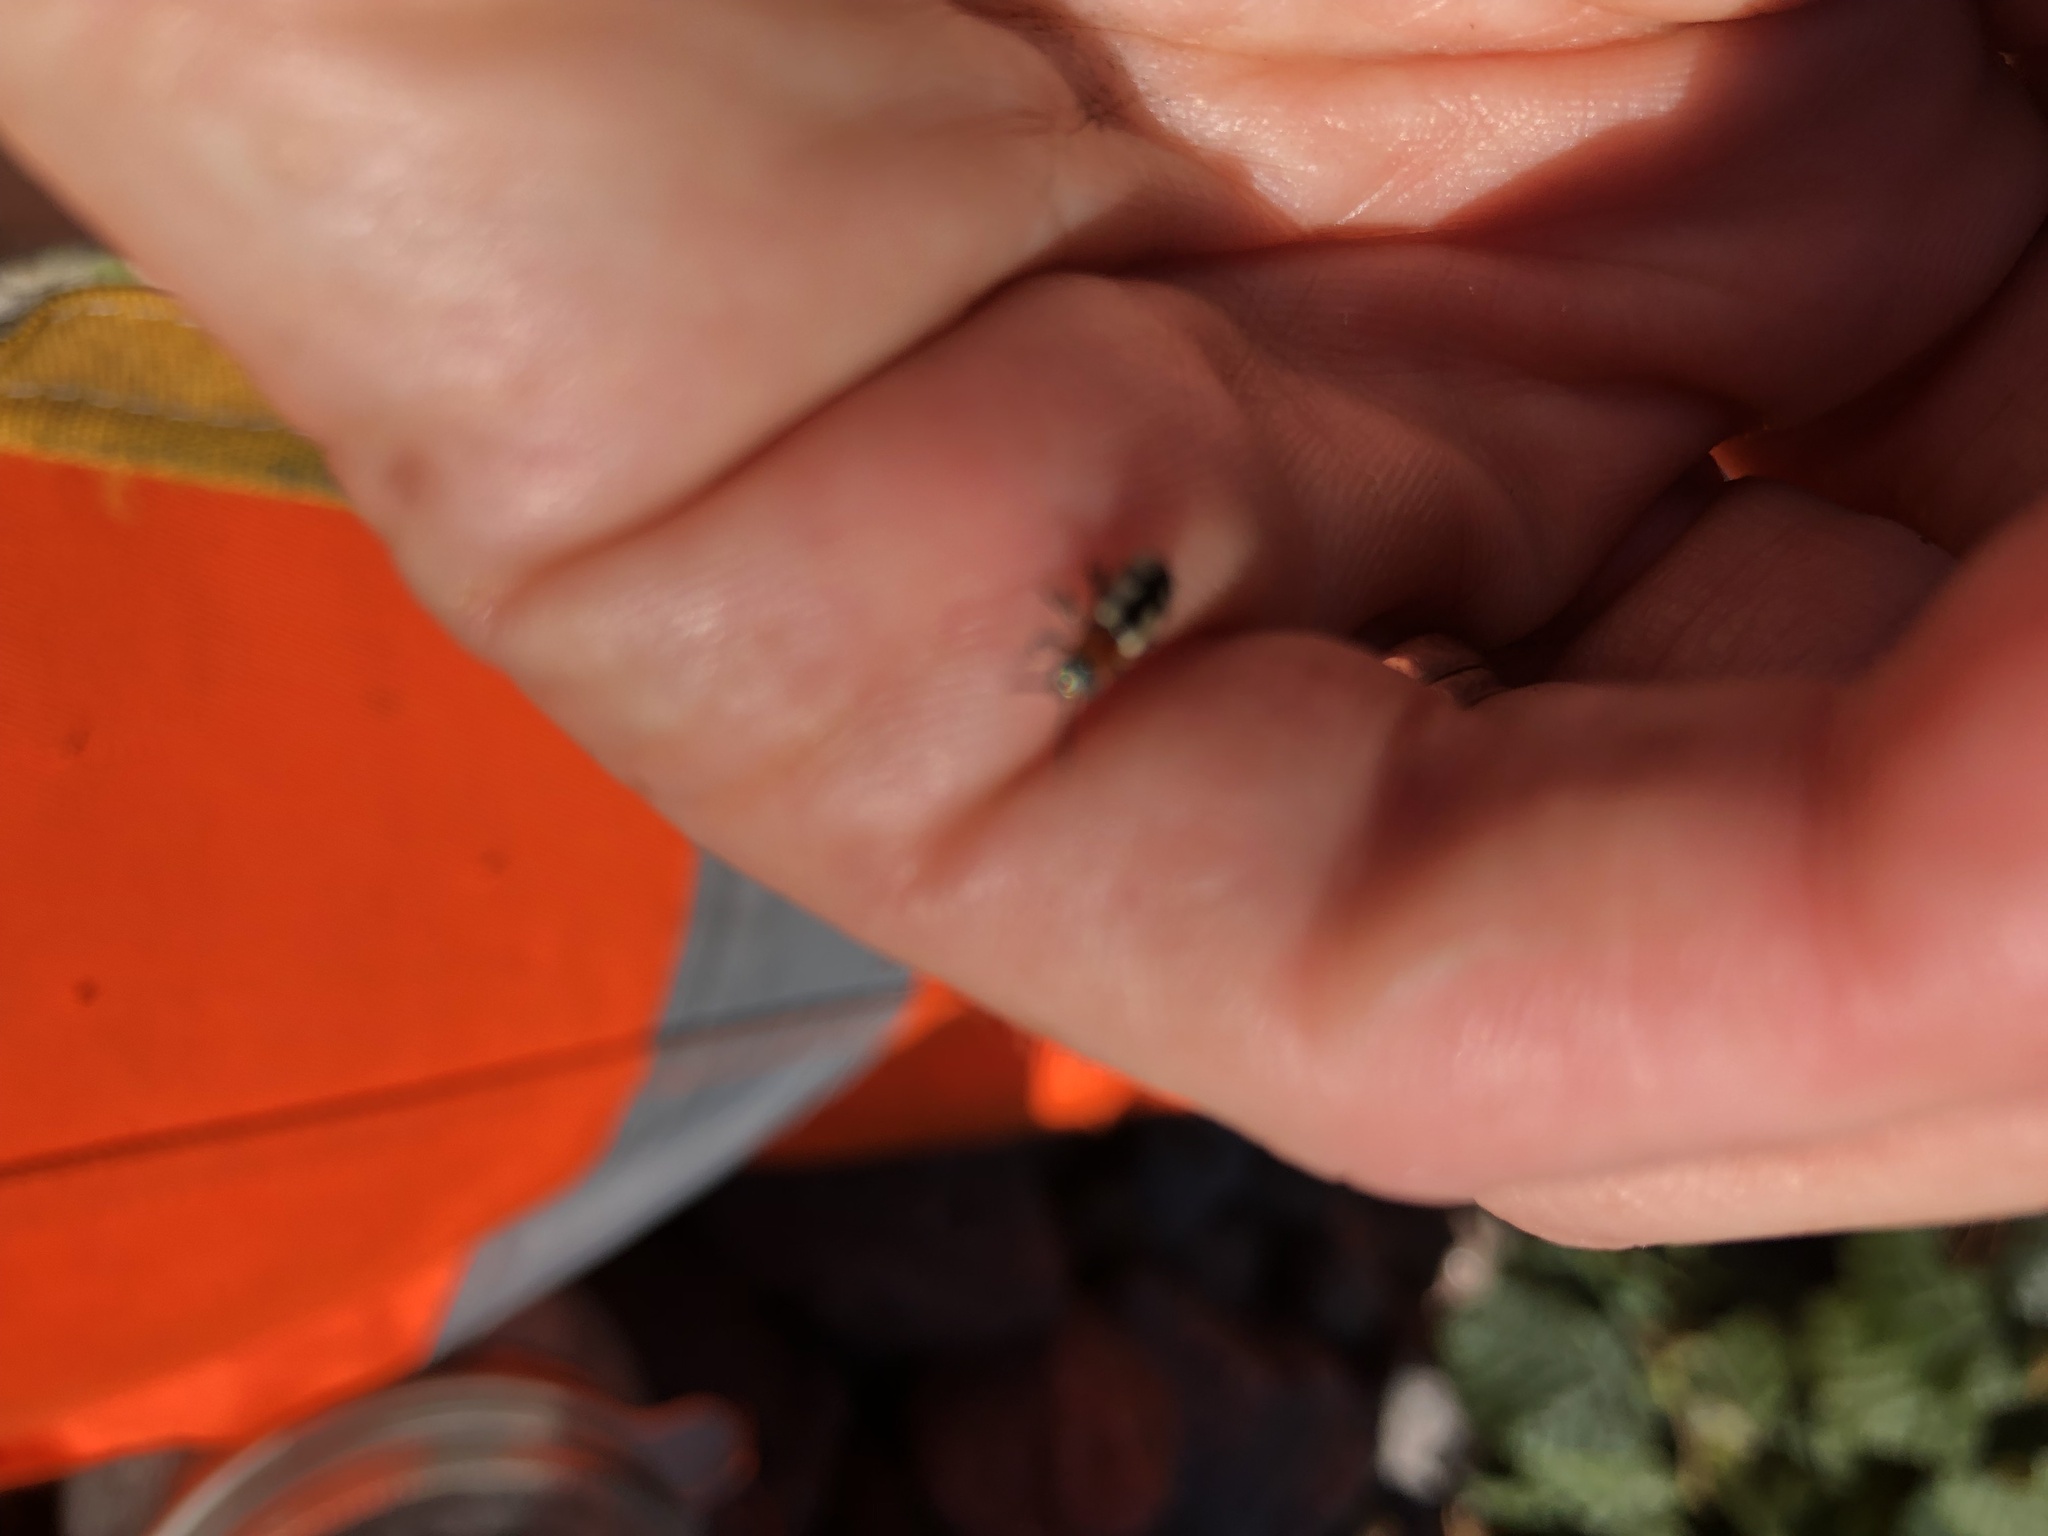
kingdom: Animalia
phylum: Arthropoda
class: Insecta
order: Coleoptera
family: Chrysomelidae
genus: Crioceris
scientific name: Crioceris asparagi
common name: Asparagus beetle
